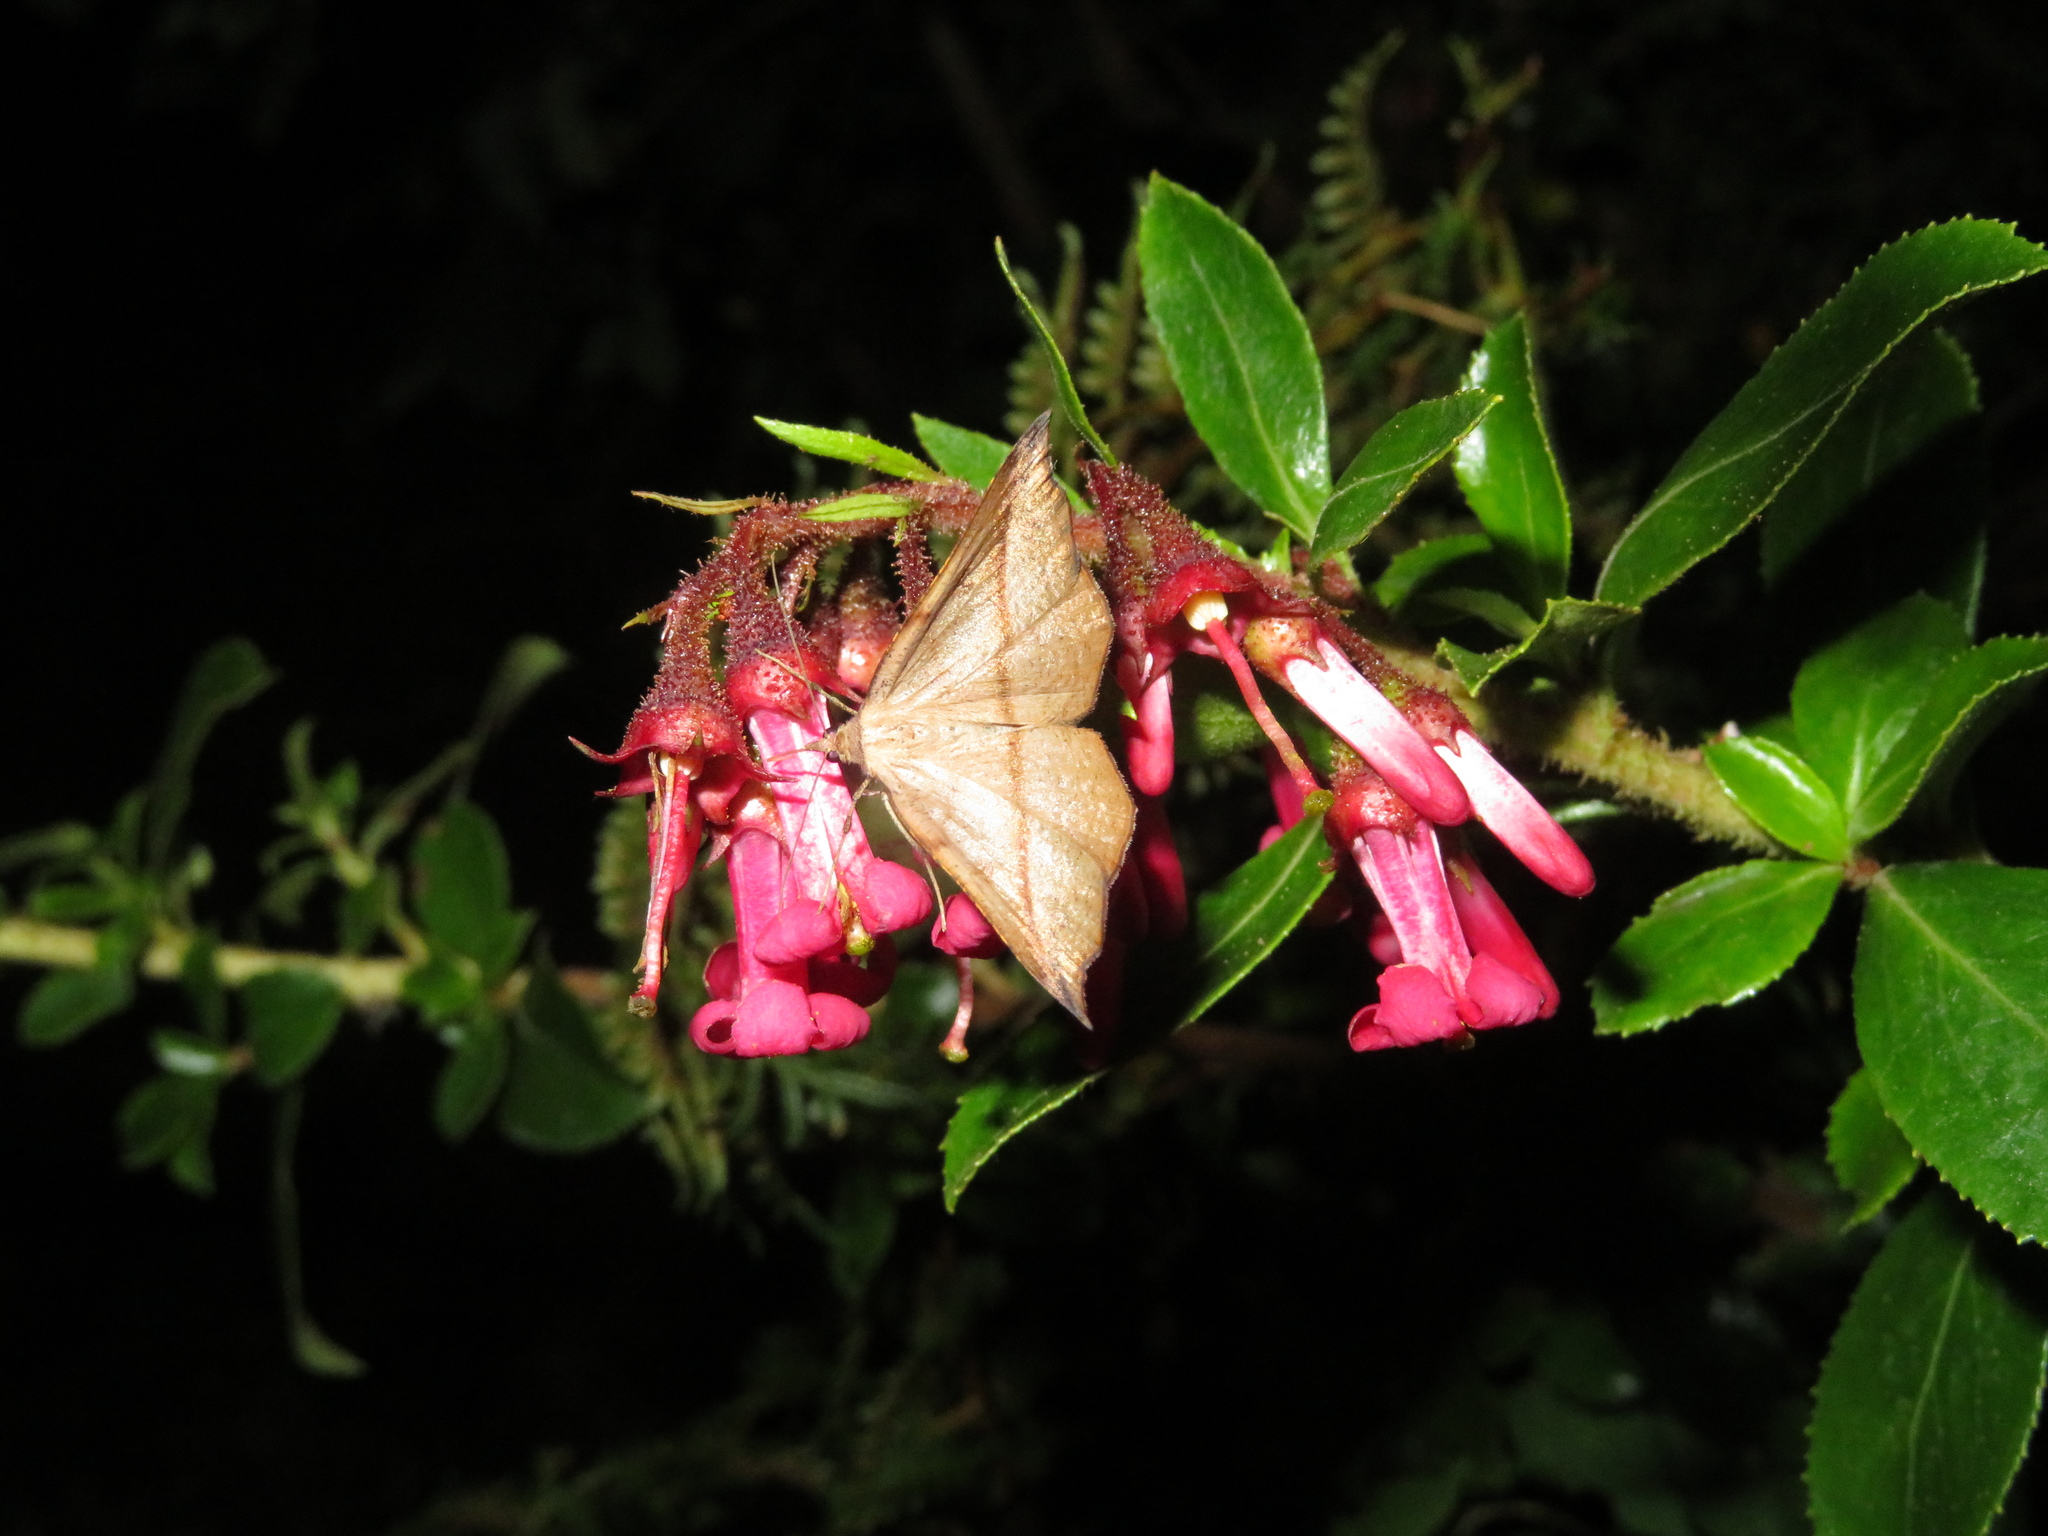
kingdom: Animalia
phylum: Arthropoda
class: Insecta
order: Lepidoptera
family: Geometridae
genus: Sarisa
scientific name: Sarisa muriferata
